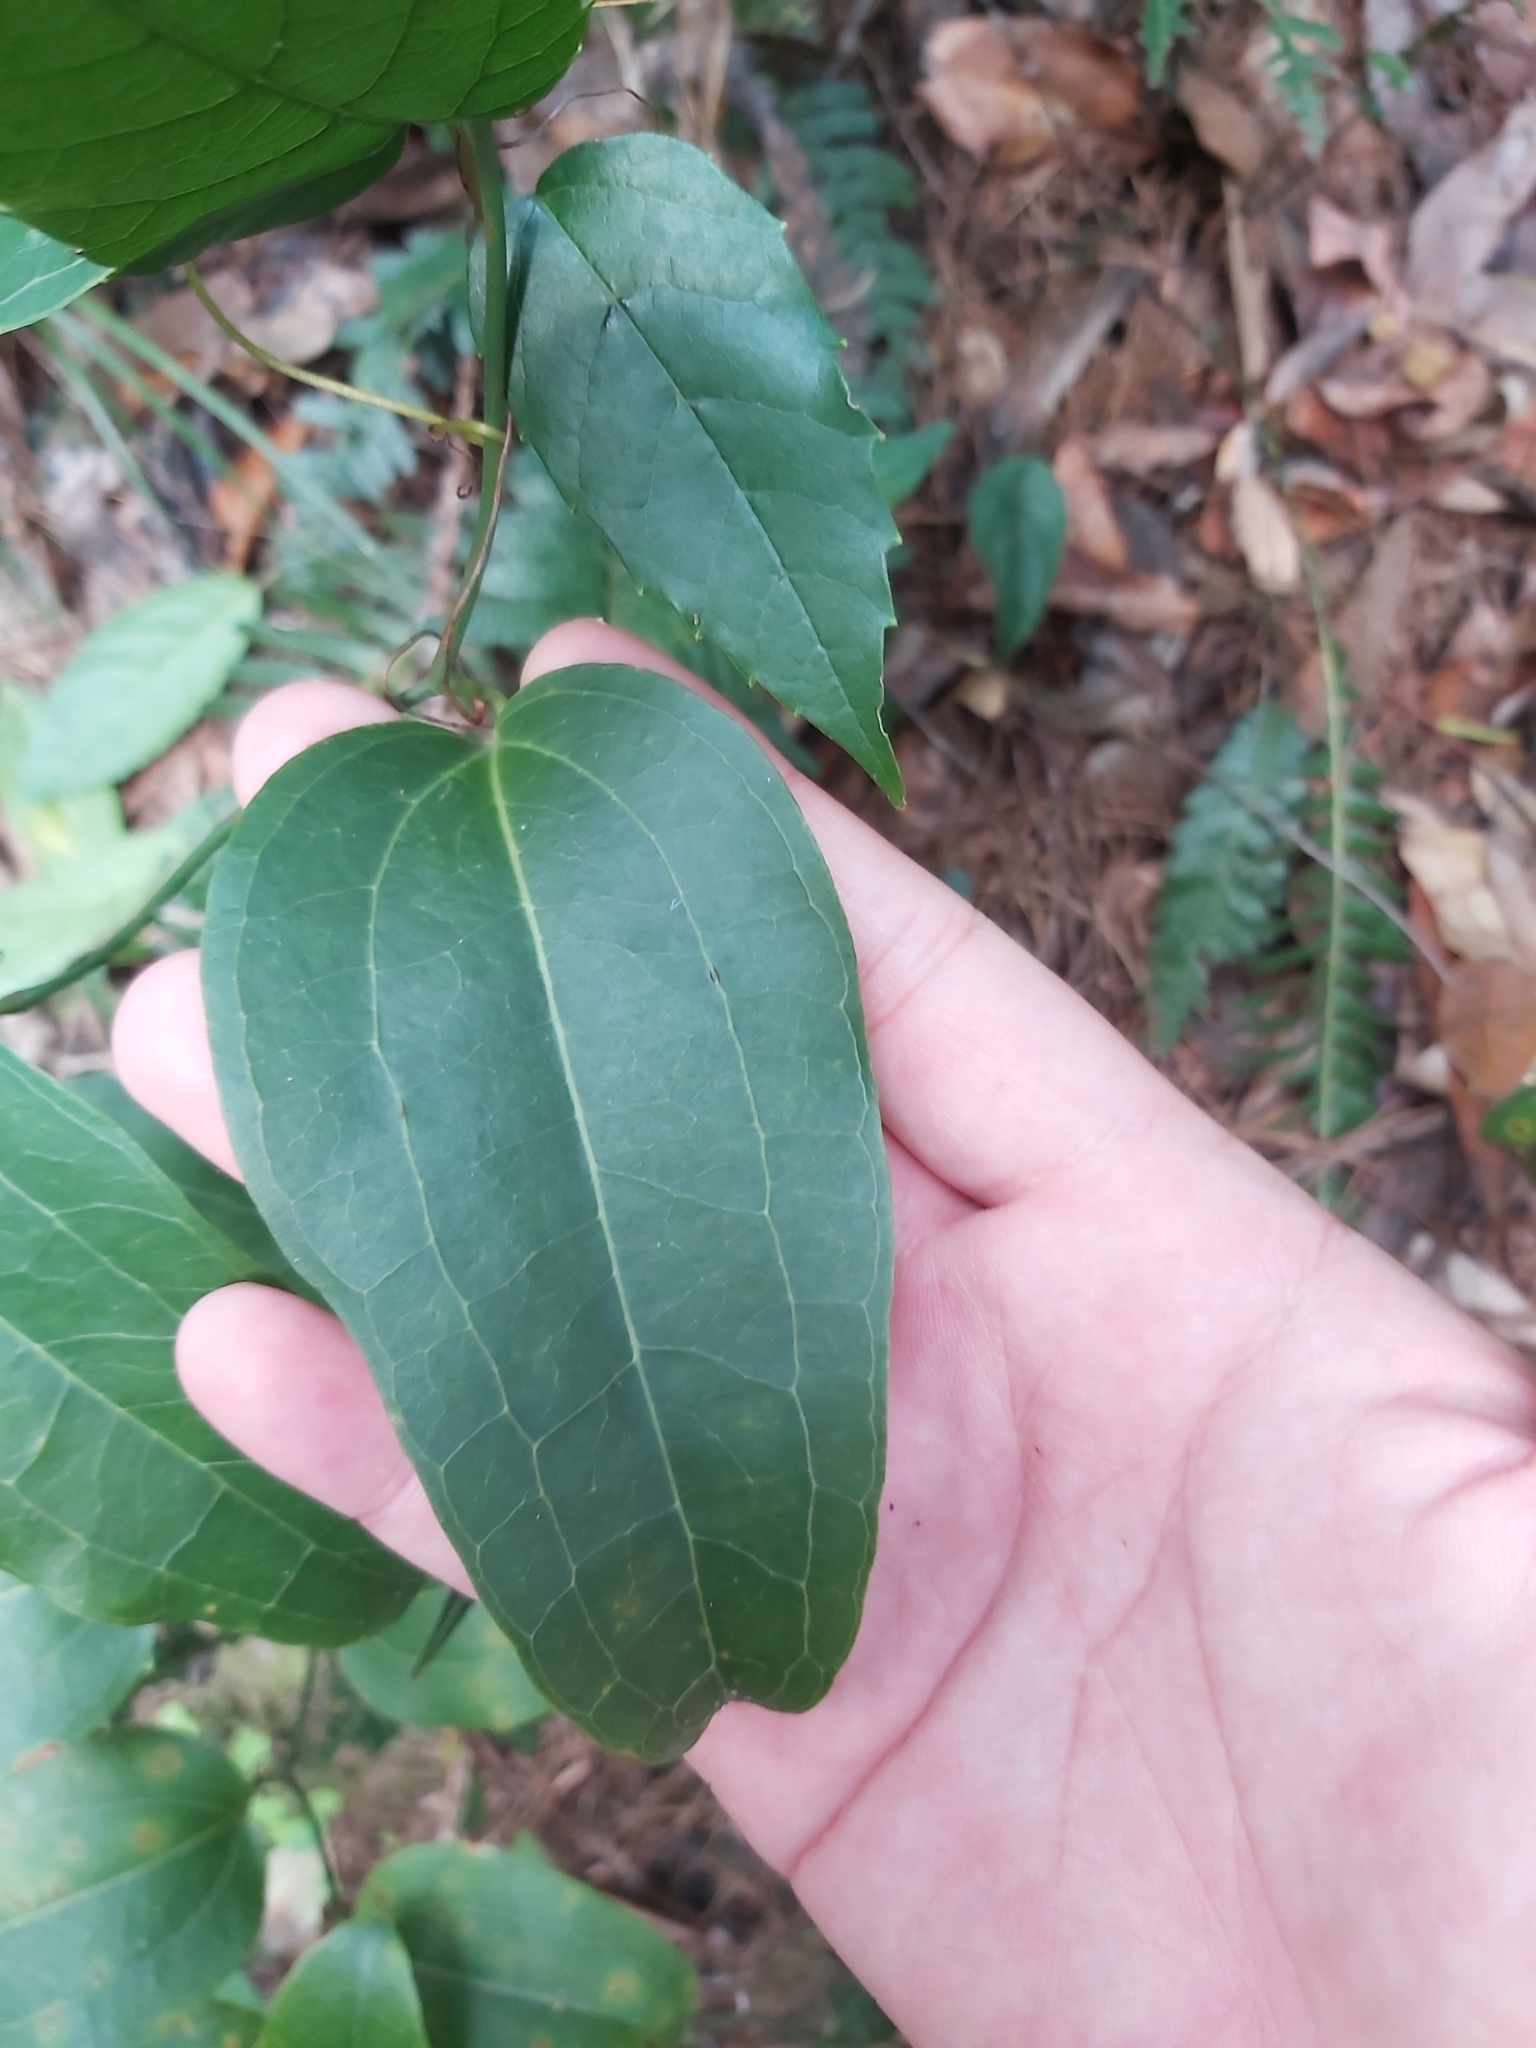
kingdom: Plantae
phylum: Tracheophyta
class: Liliopsida
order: Liliales
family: Smilacaceae
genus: Smilax
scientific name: Smilax australis
